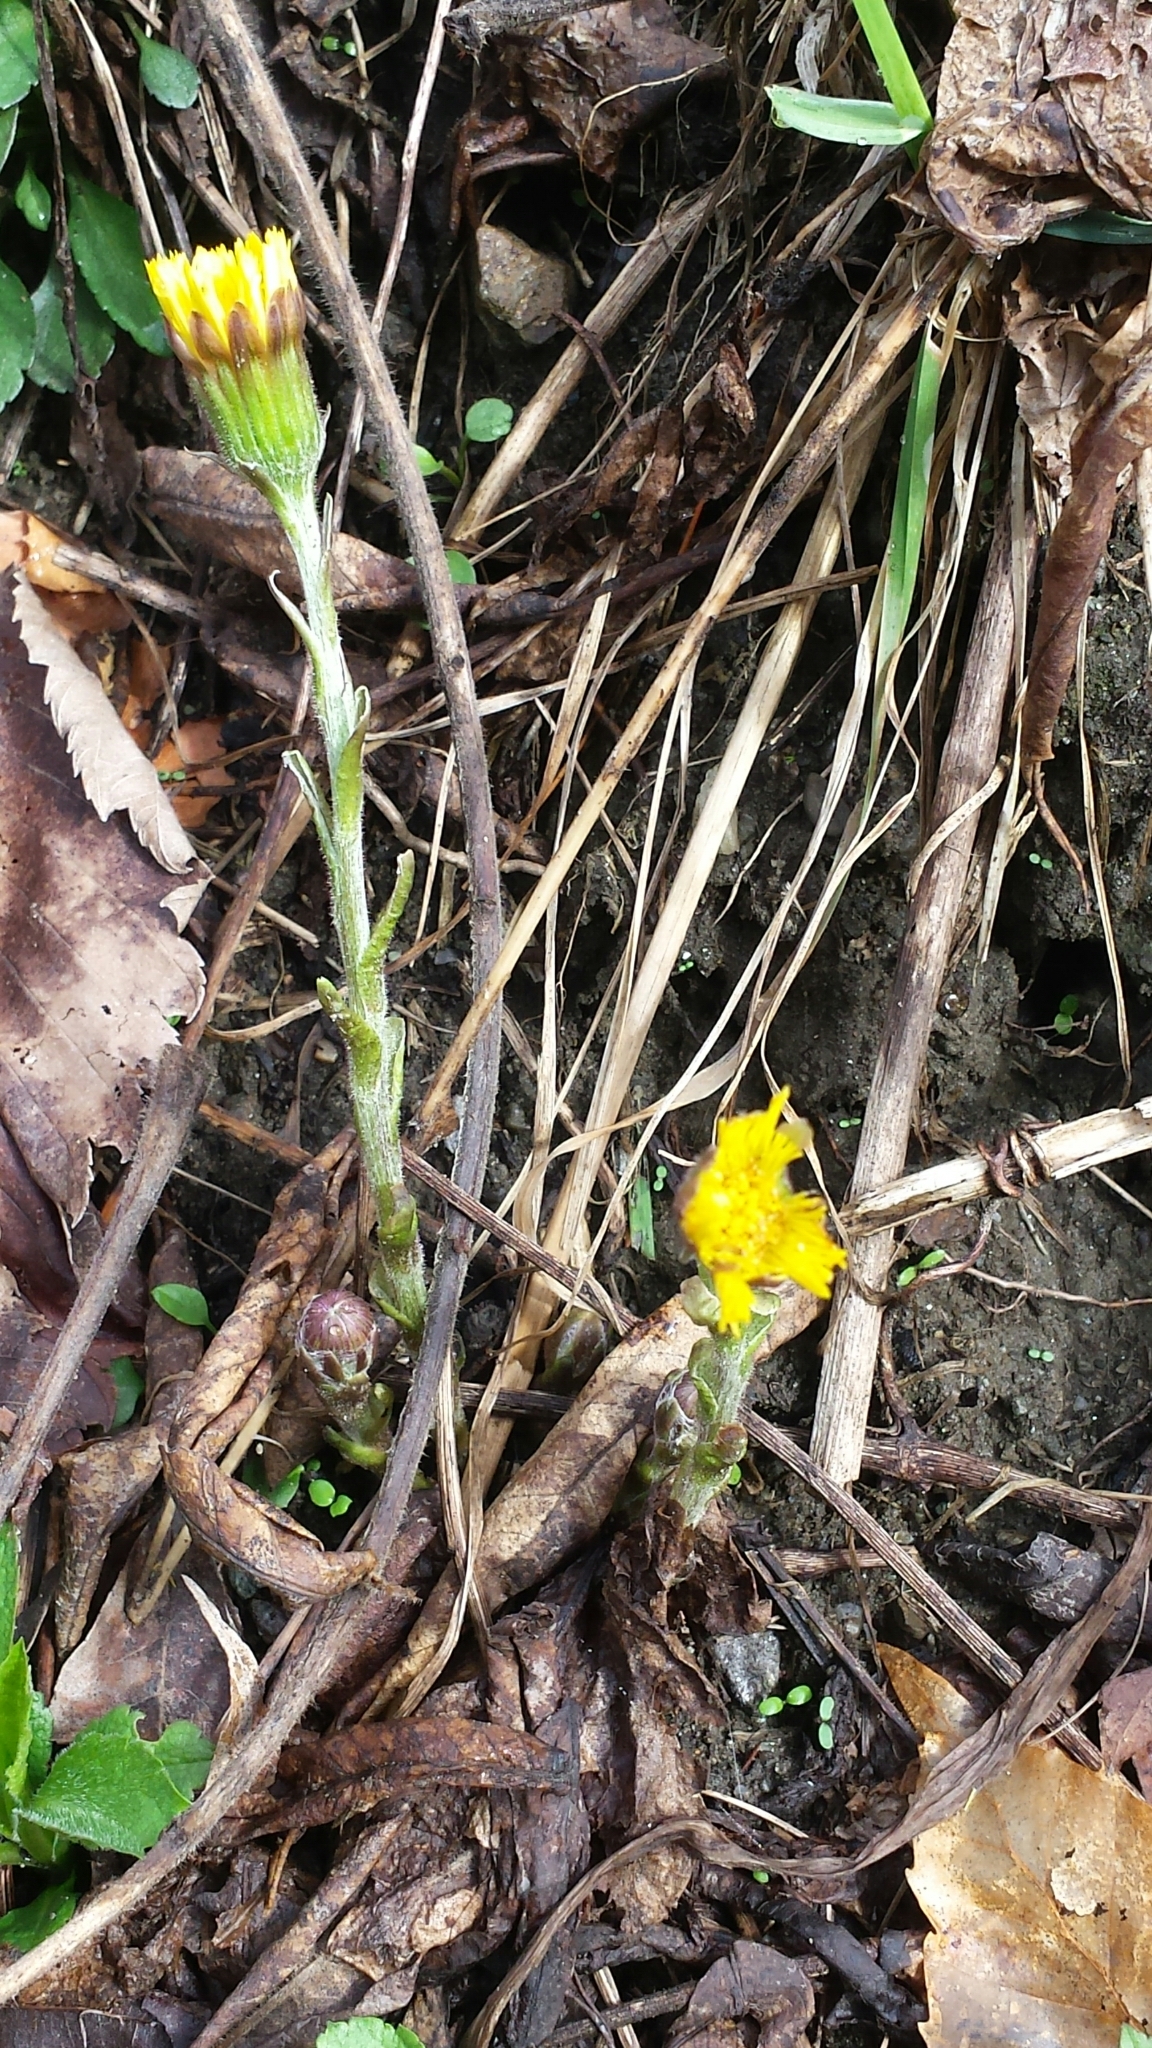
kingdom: Plantae
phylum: Tracheophyta
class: Magnoliopsida
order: Asterales
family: Asteraceae
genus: Tussilago
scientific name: Tussilago farfara
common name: Coltsfoot
